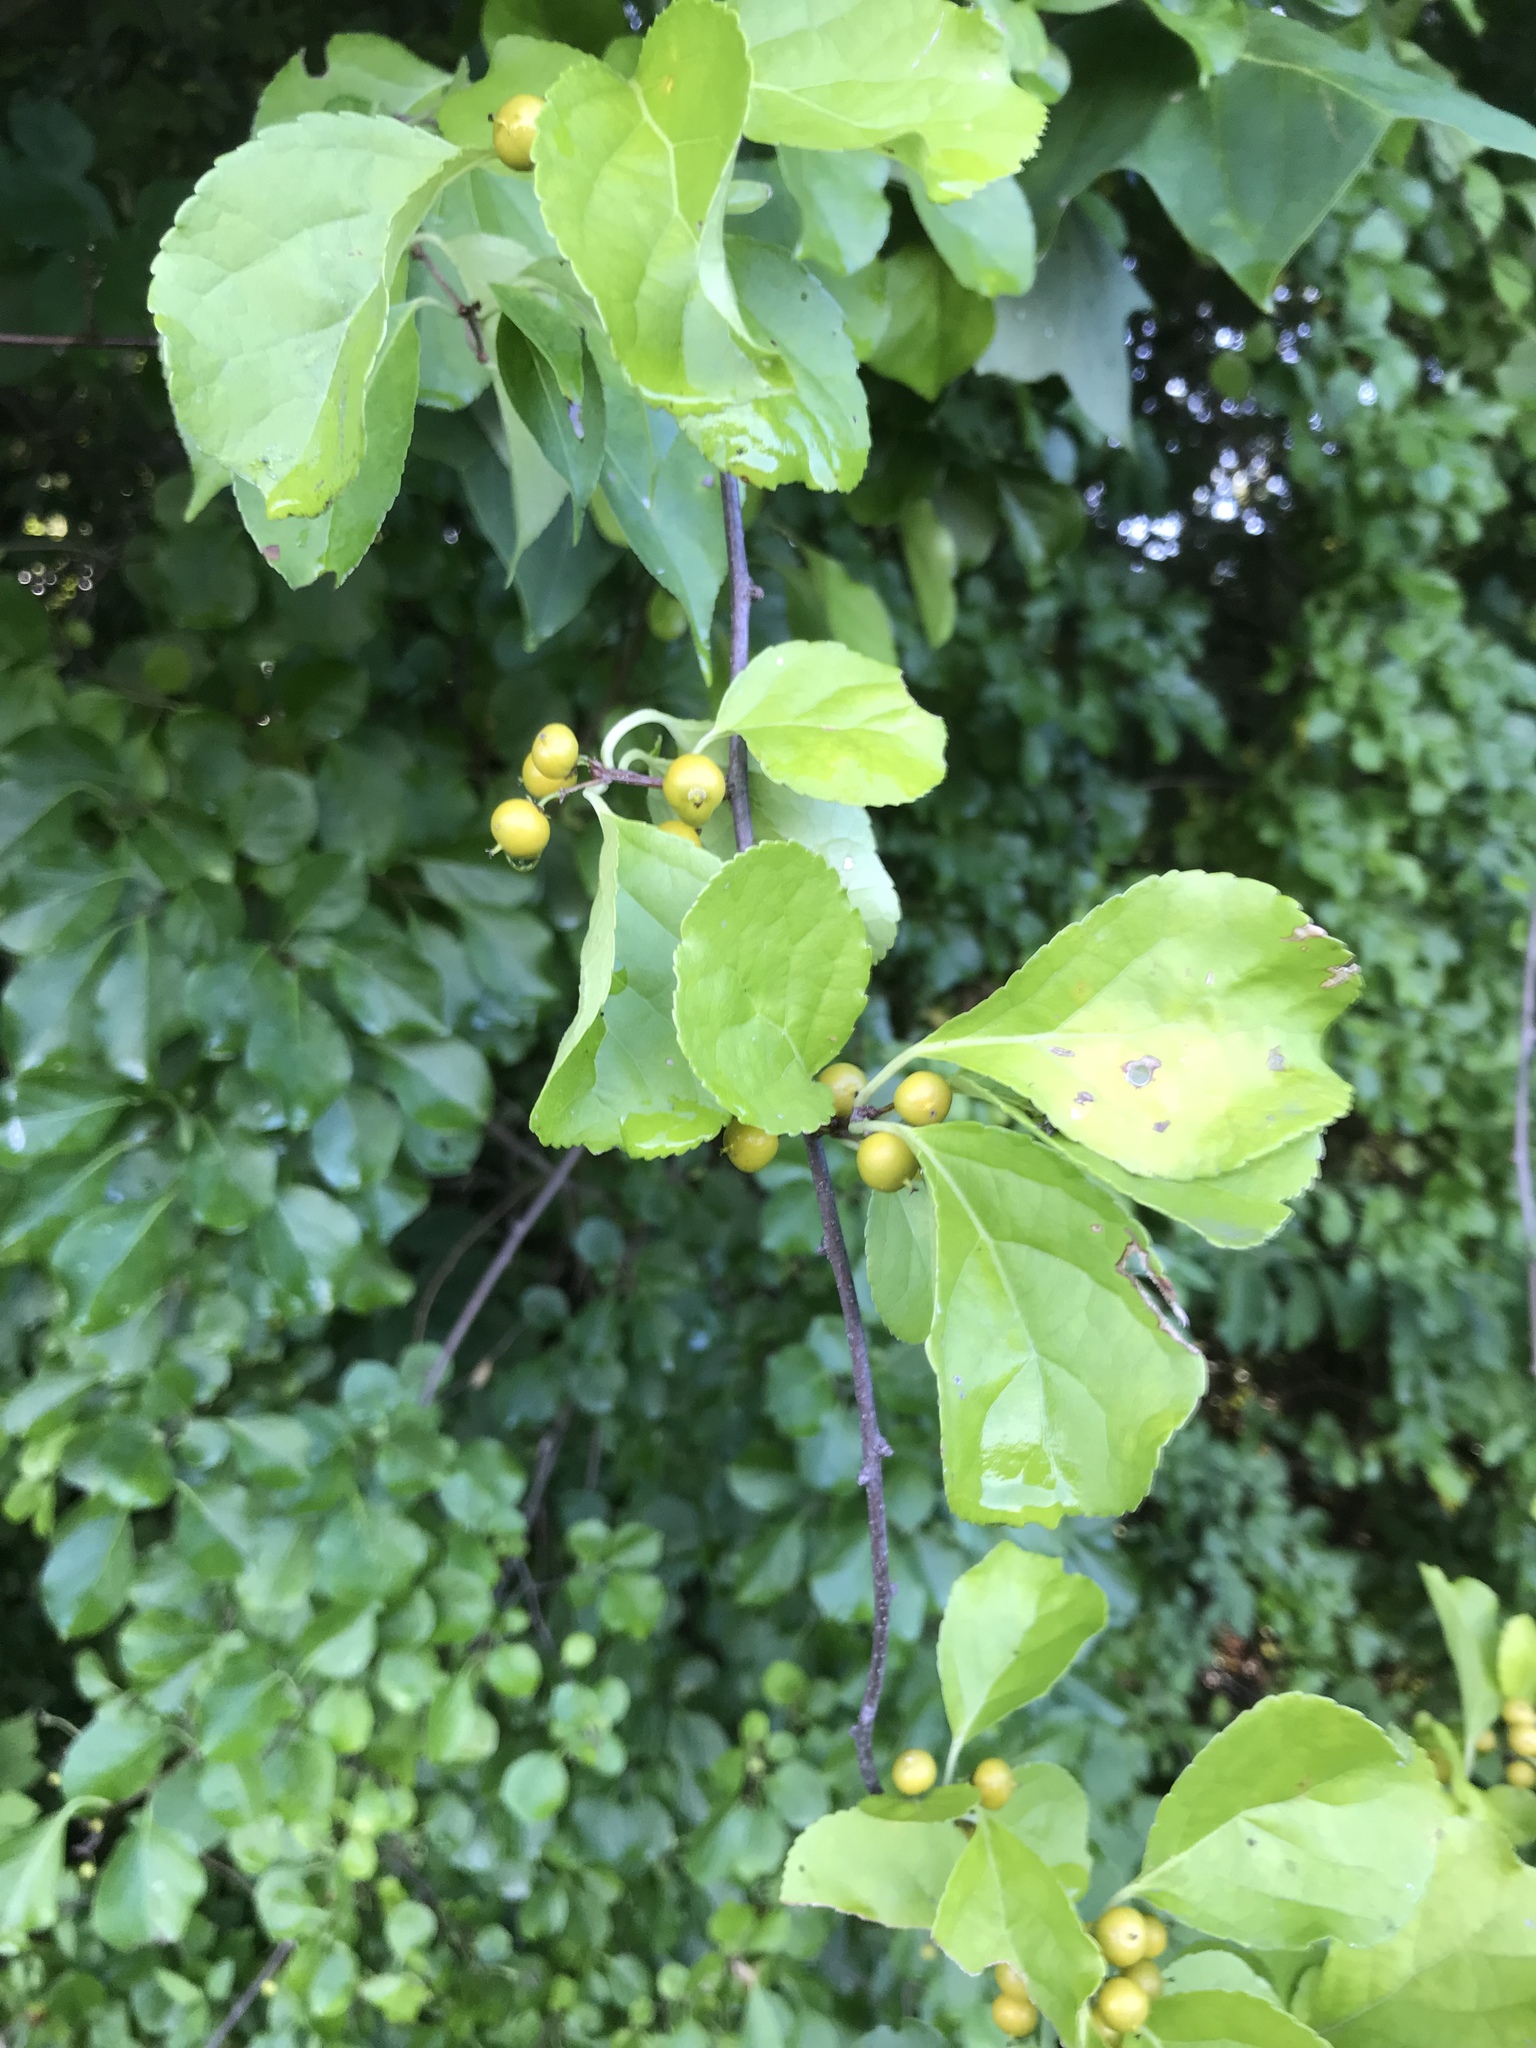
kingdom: Plantae
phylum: Tracheophyta
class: Magnoliopsida
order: Celastrales
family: Celastraceae
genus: Celastrus
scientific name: Celastrus orbiculatus
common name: Oriental bittersweet
